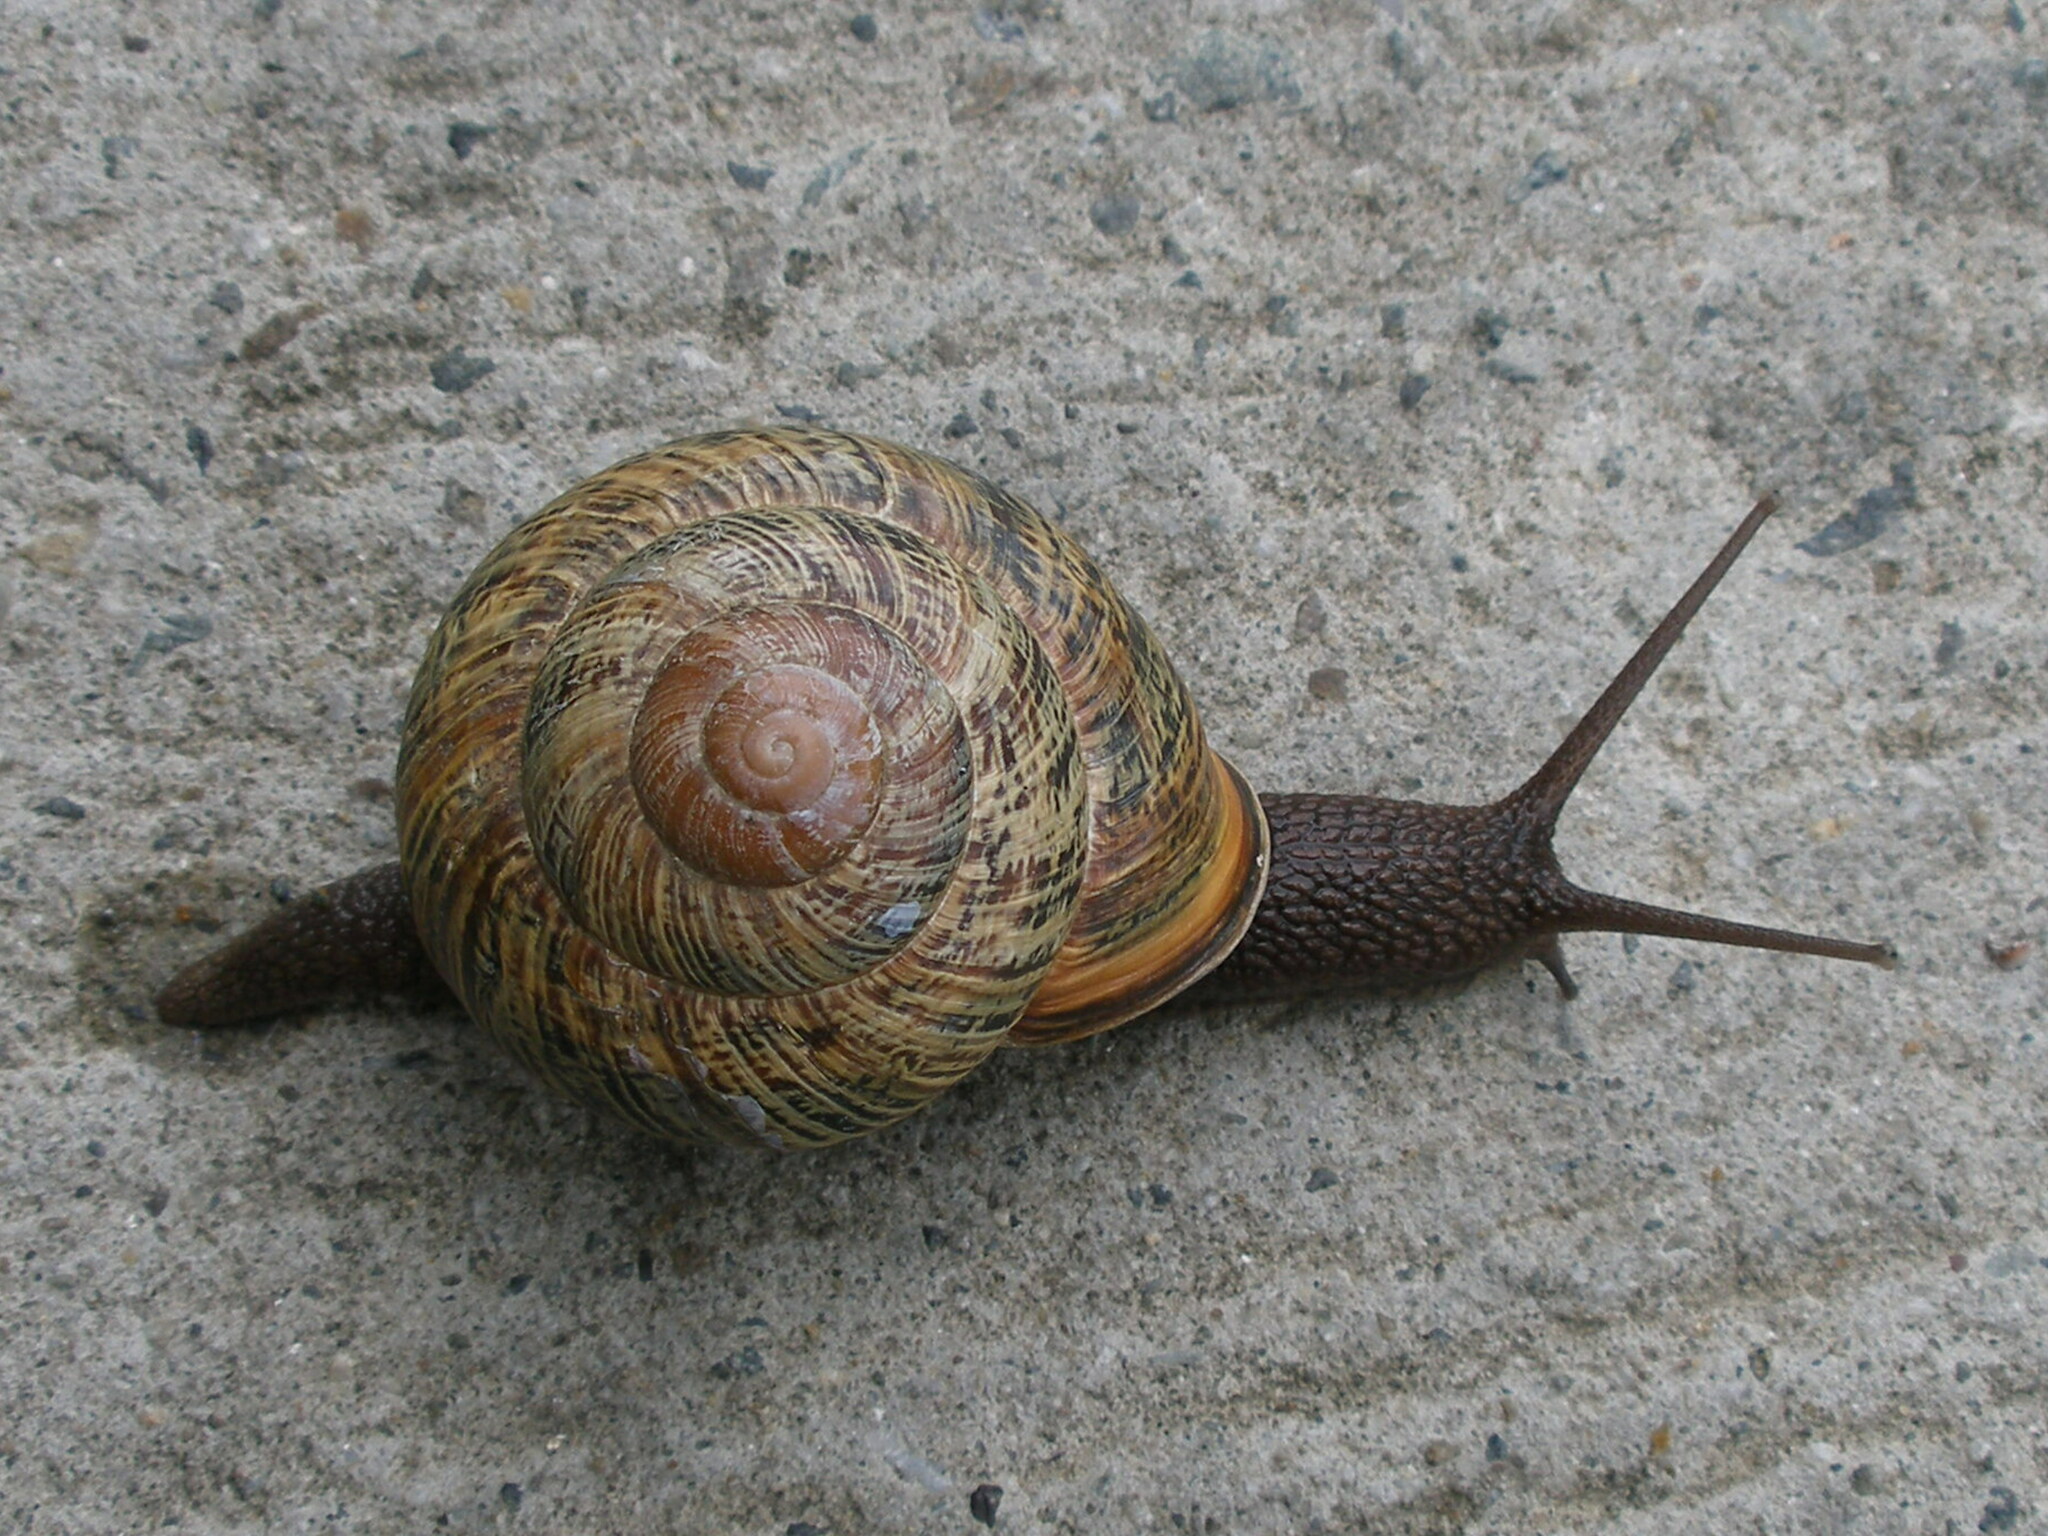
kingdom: Animalia
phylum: Mollusca
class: Gastropoda
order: Stylommatophora
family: Helicidae
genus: Caucasotachea
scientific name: Caucasotachea atrolabiata
